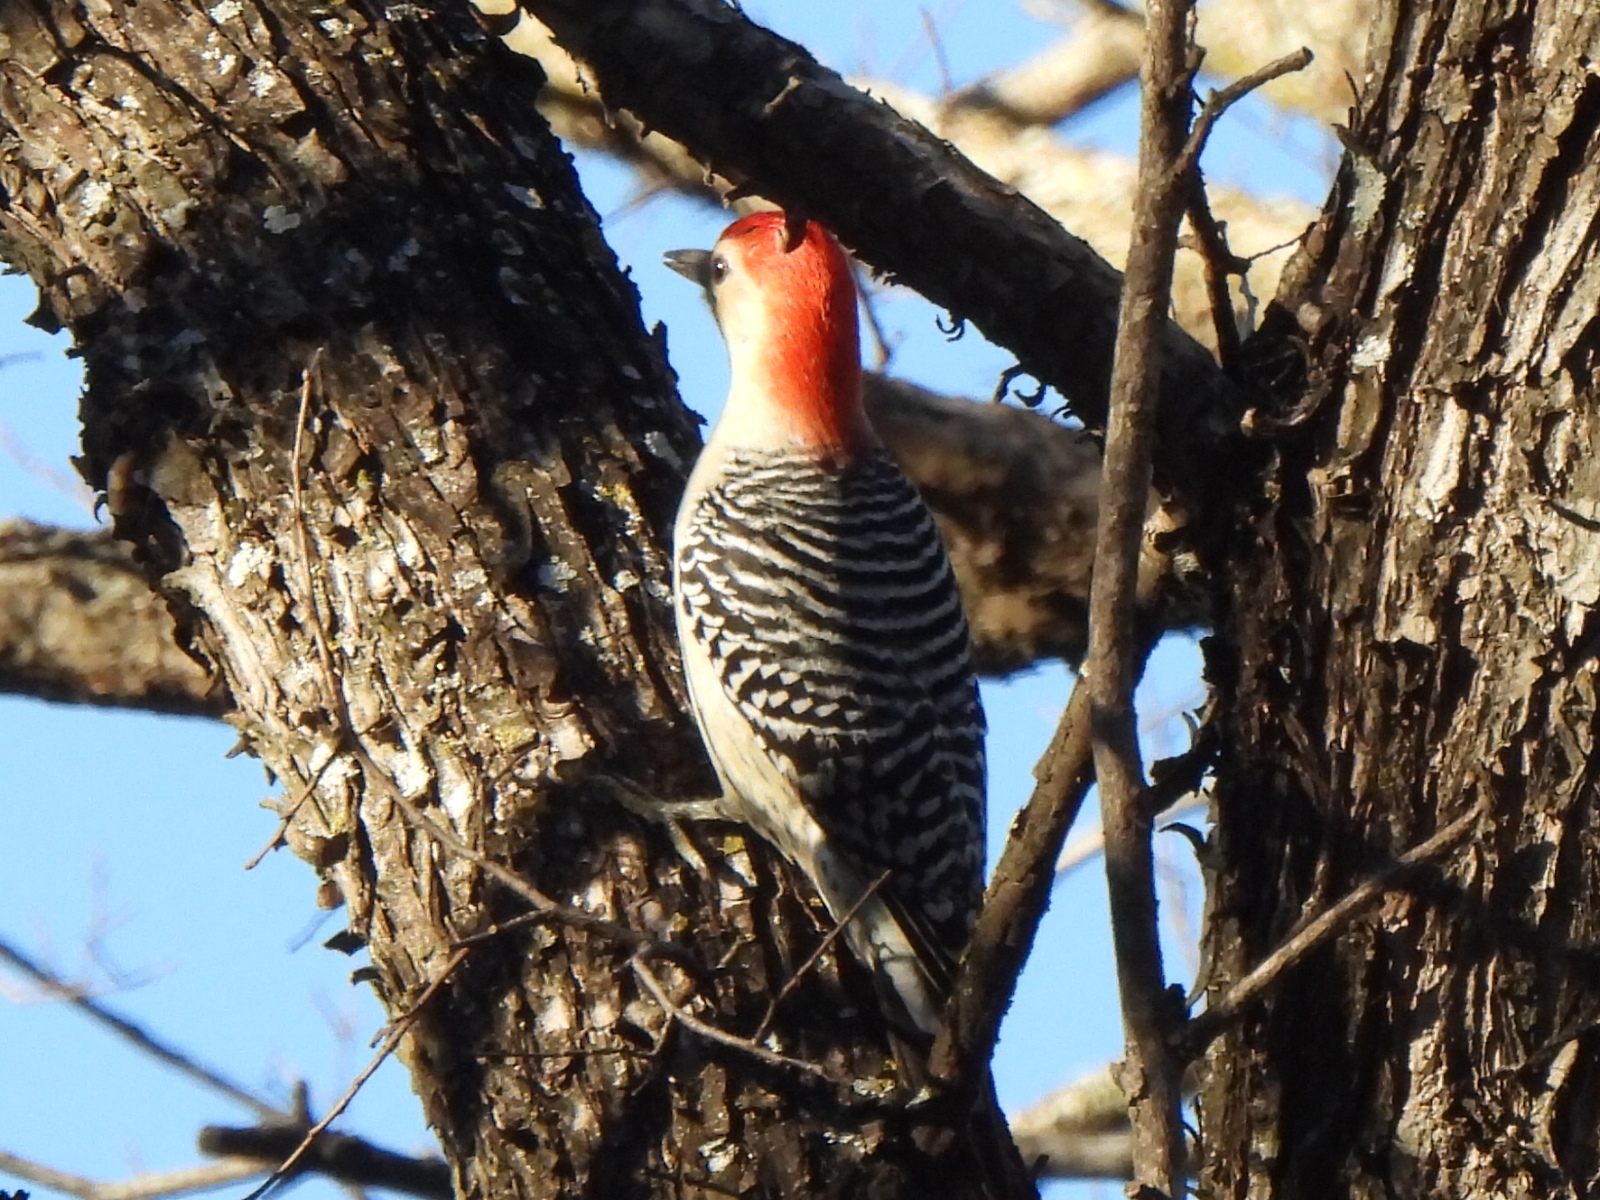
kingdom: Animalia
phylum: Chordata
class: Aves
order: Piciformes
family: Picidae
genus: Melanerpes
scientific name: Melanerpes carolinus
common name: Red-bellied woodpecker
